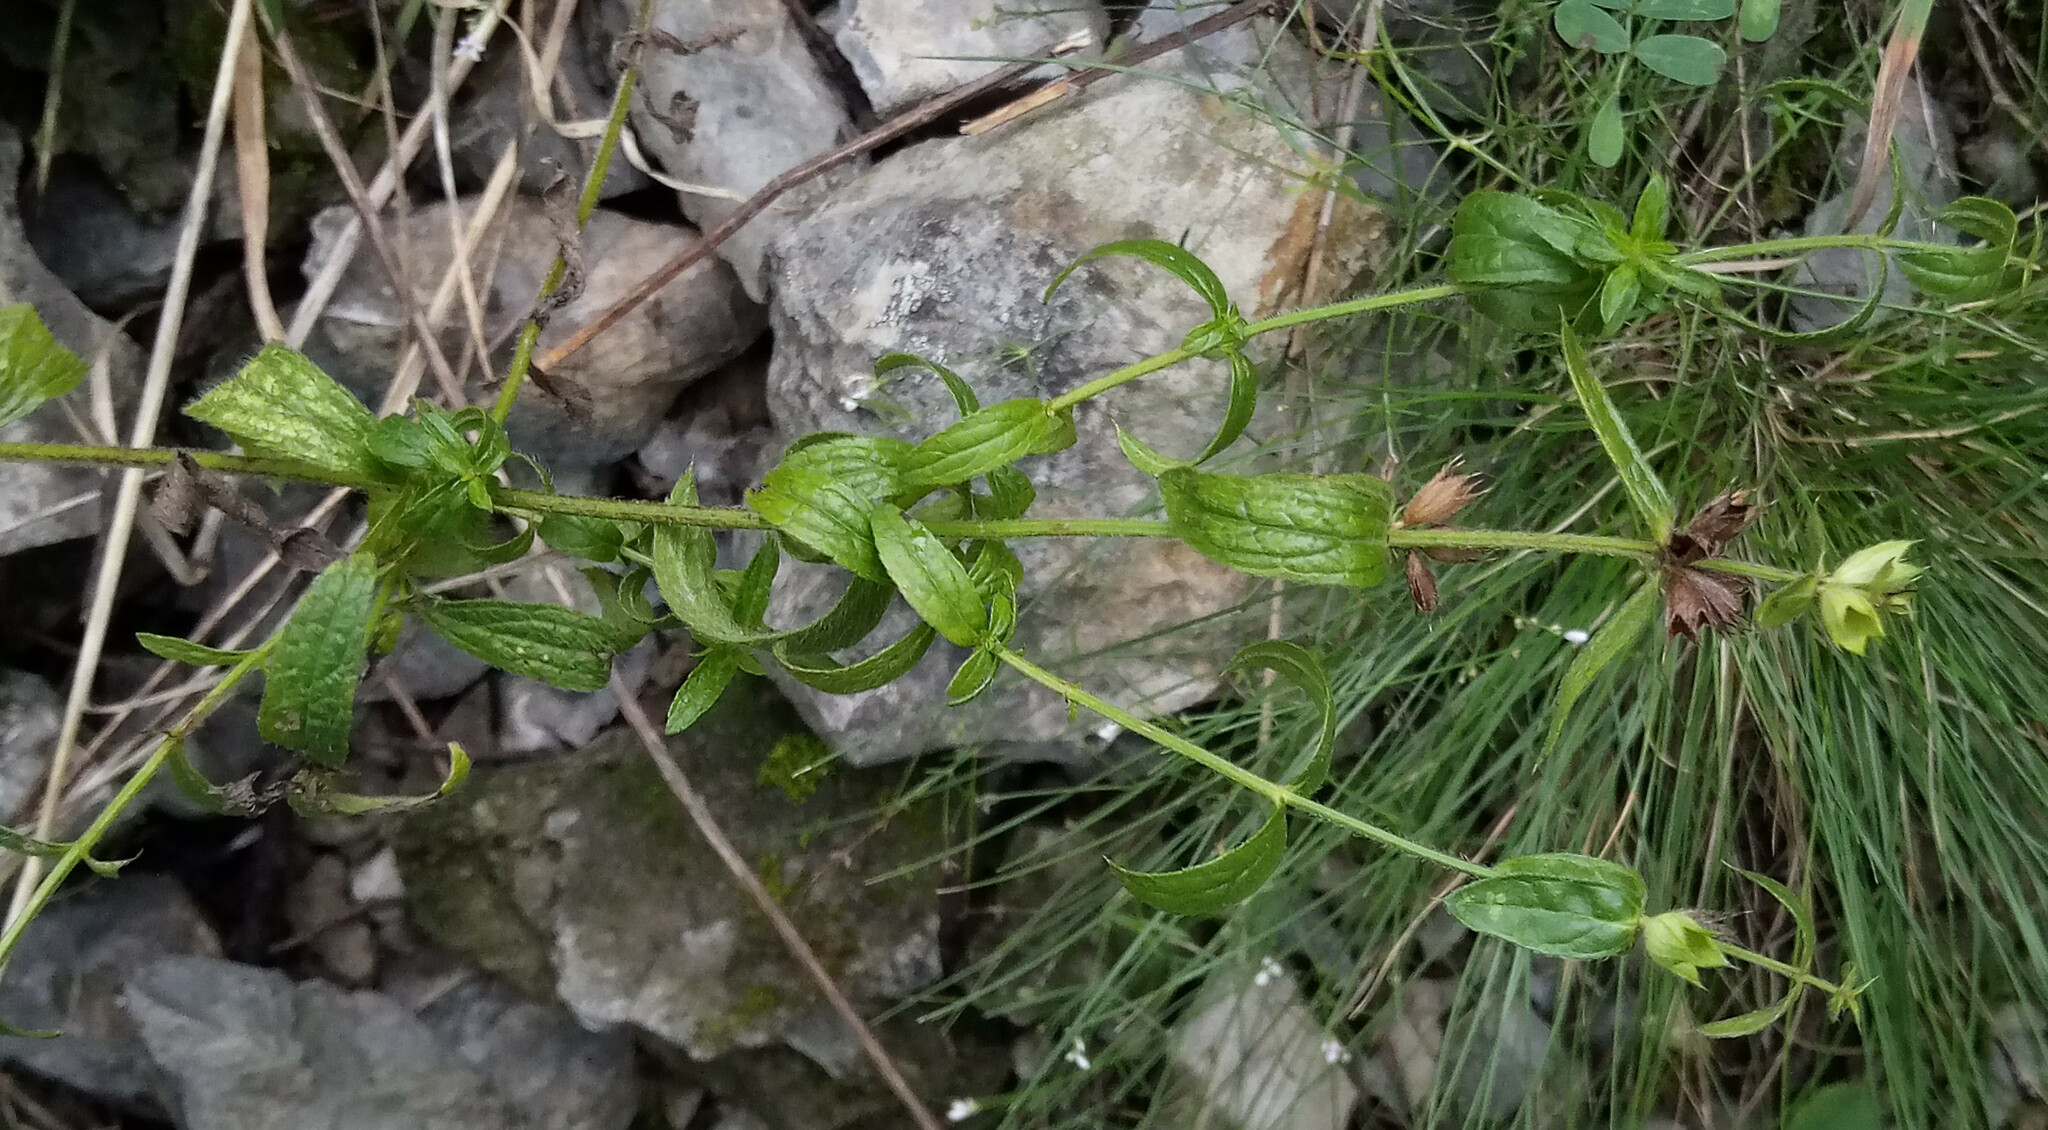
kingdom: Plantae
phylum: Tracheophyta
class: Magnoliopsida
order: Lamiales
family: Lamiaceae
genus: Stachys
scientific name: Stachys recta
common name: Perennial yellow-woundwort
